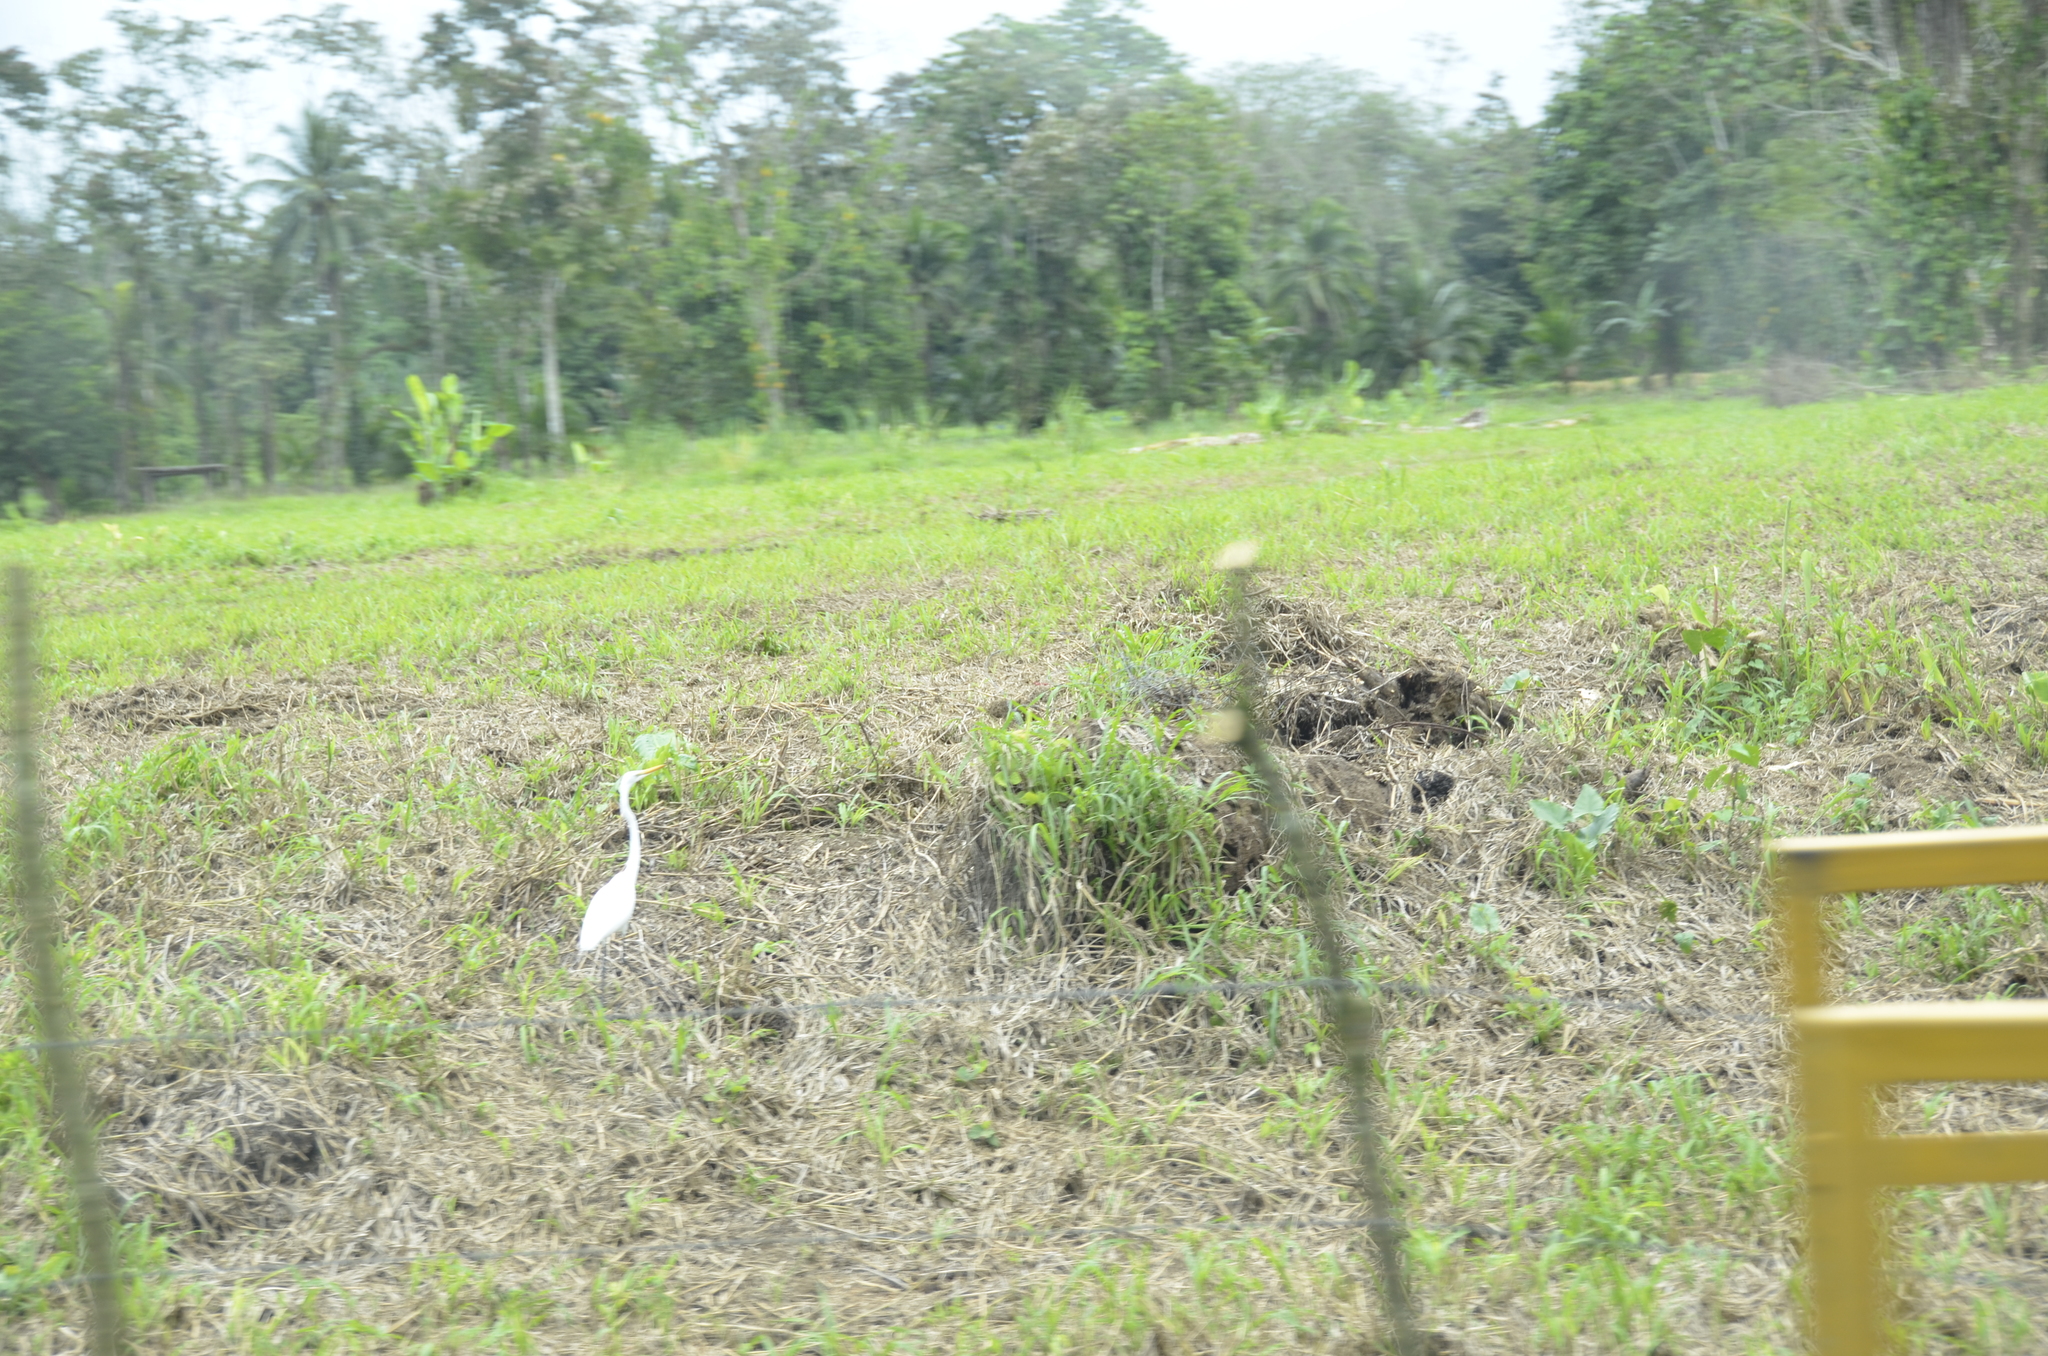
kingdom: Animalia
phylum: Chordata
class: Aves
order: Pelecaniformes
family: Ardeidae
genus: Ardea
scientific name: Ardea alba
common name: Great egret
